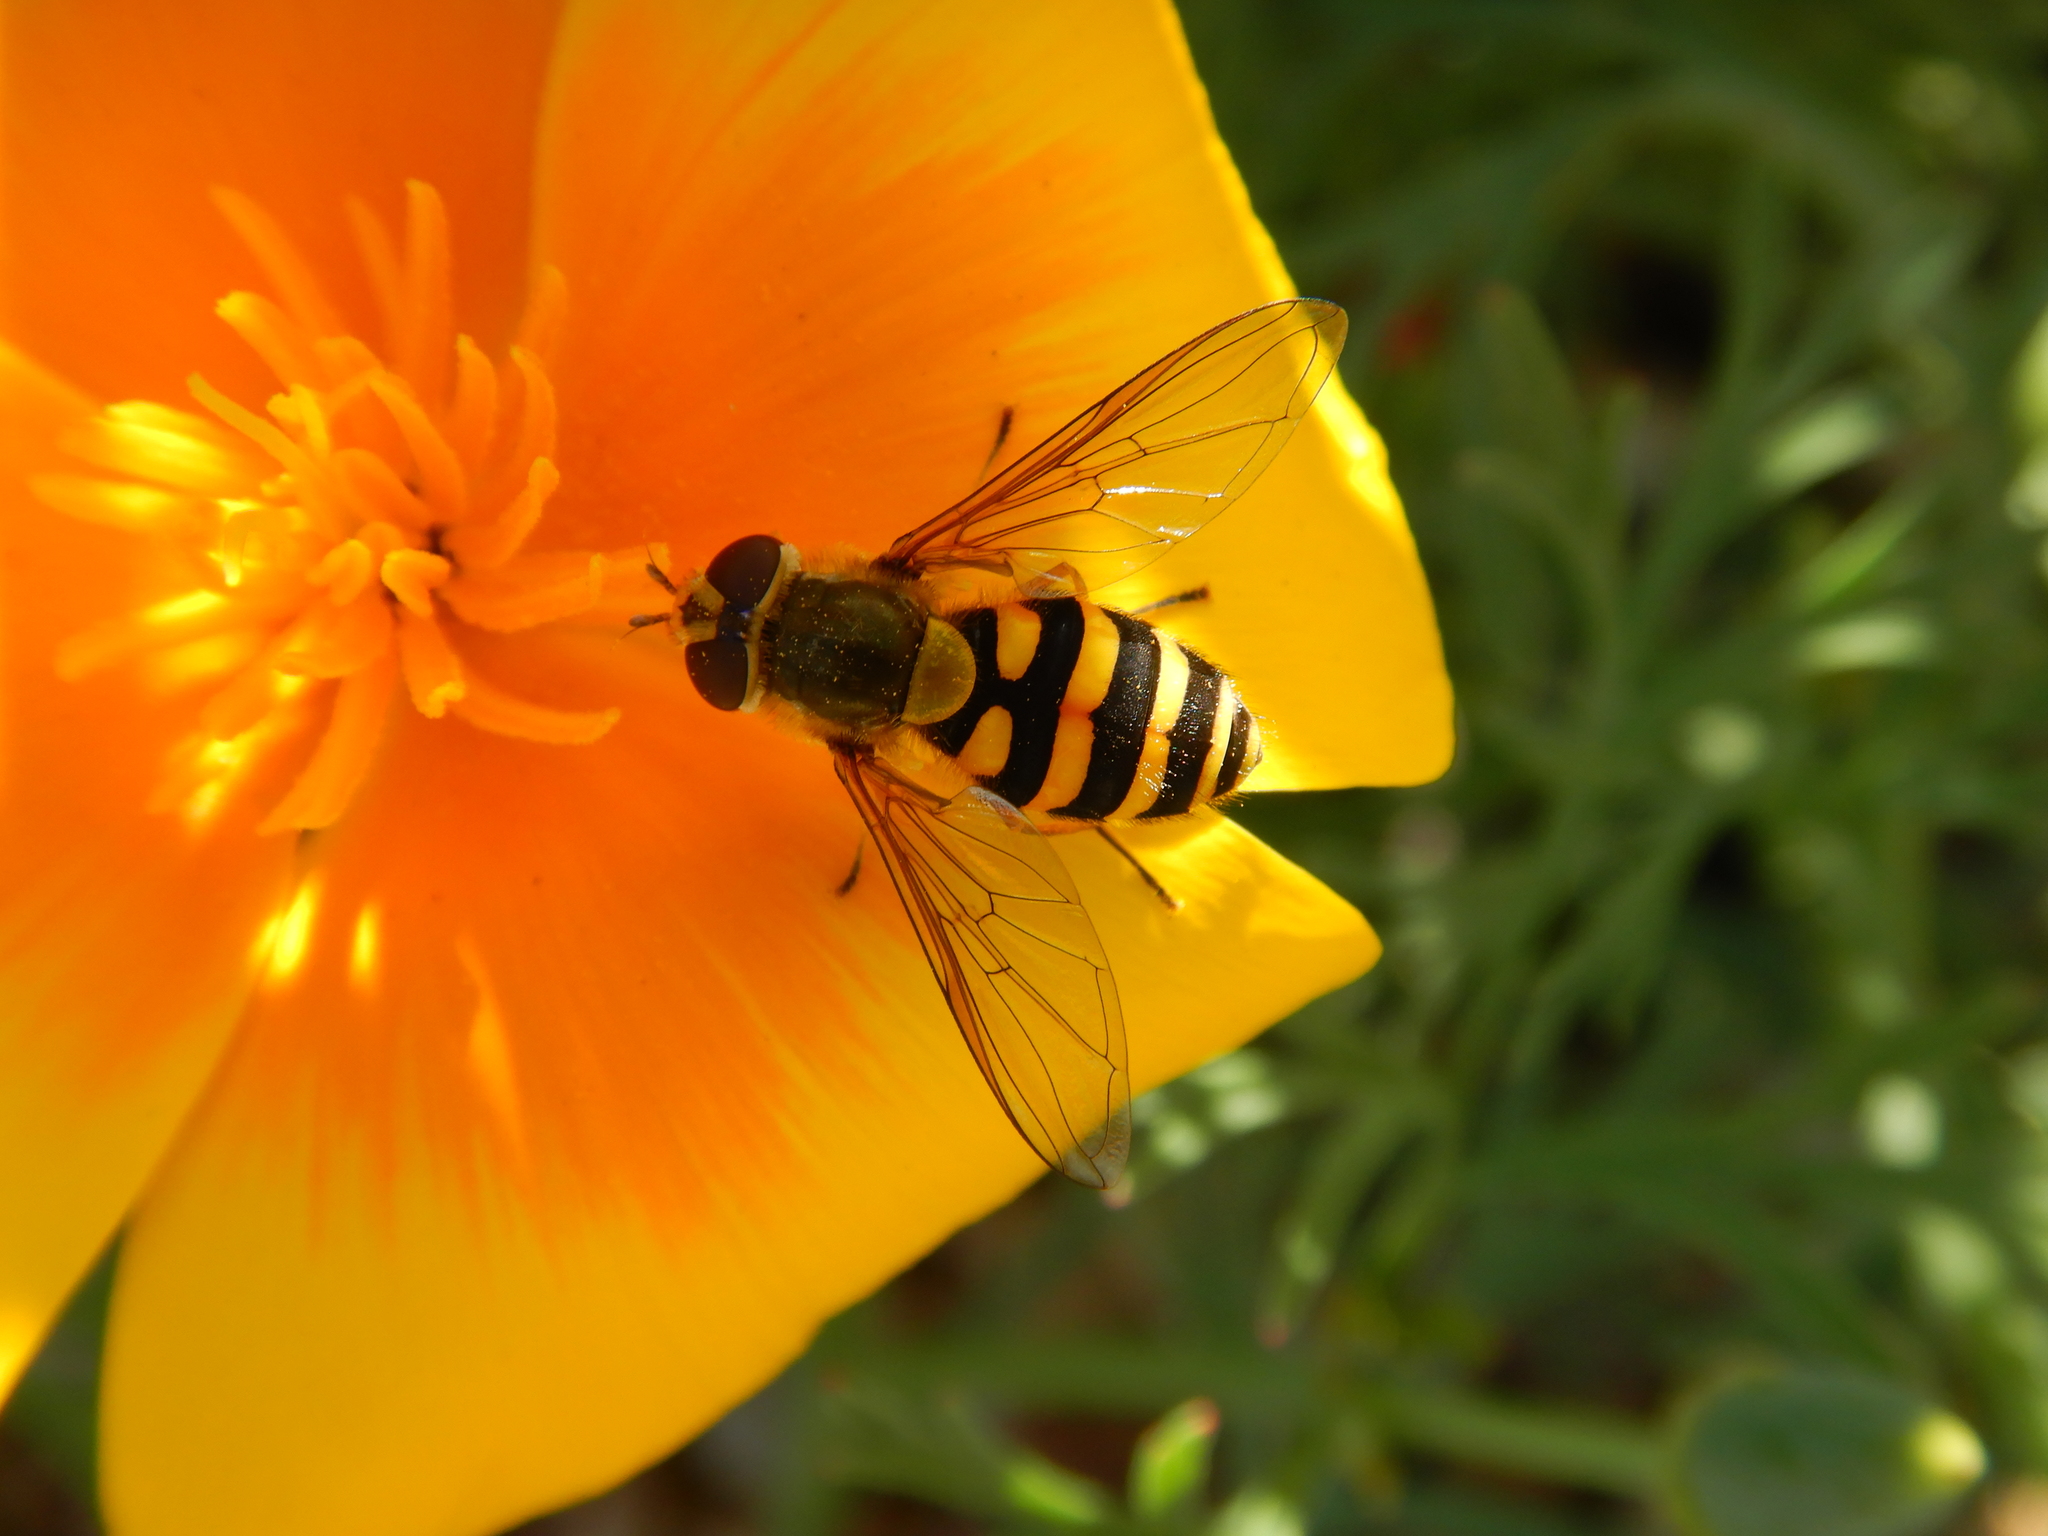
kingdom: Animalia
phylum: Arthropoda
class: Insecta
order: Diptera
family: Syrphidae
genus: Syrphus
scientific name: Syrphus
